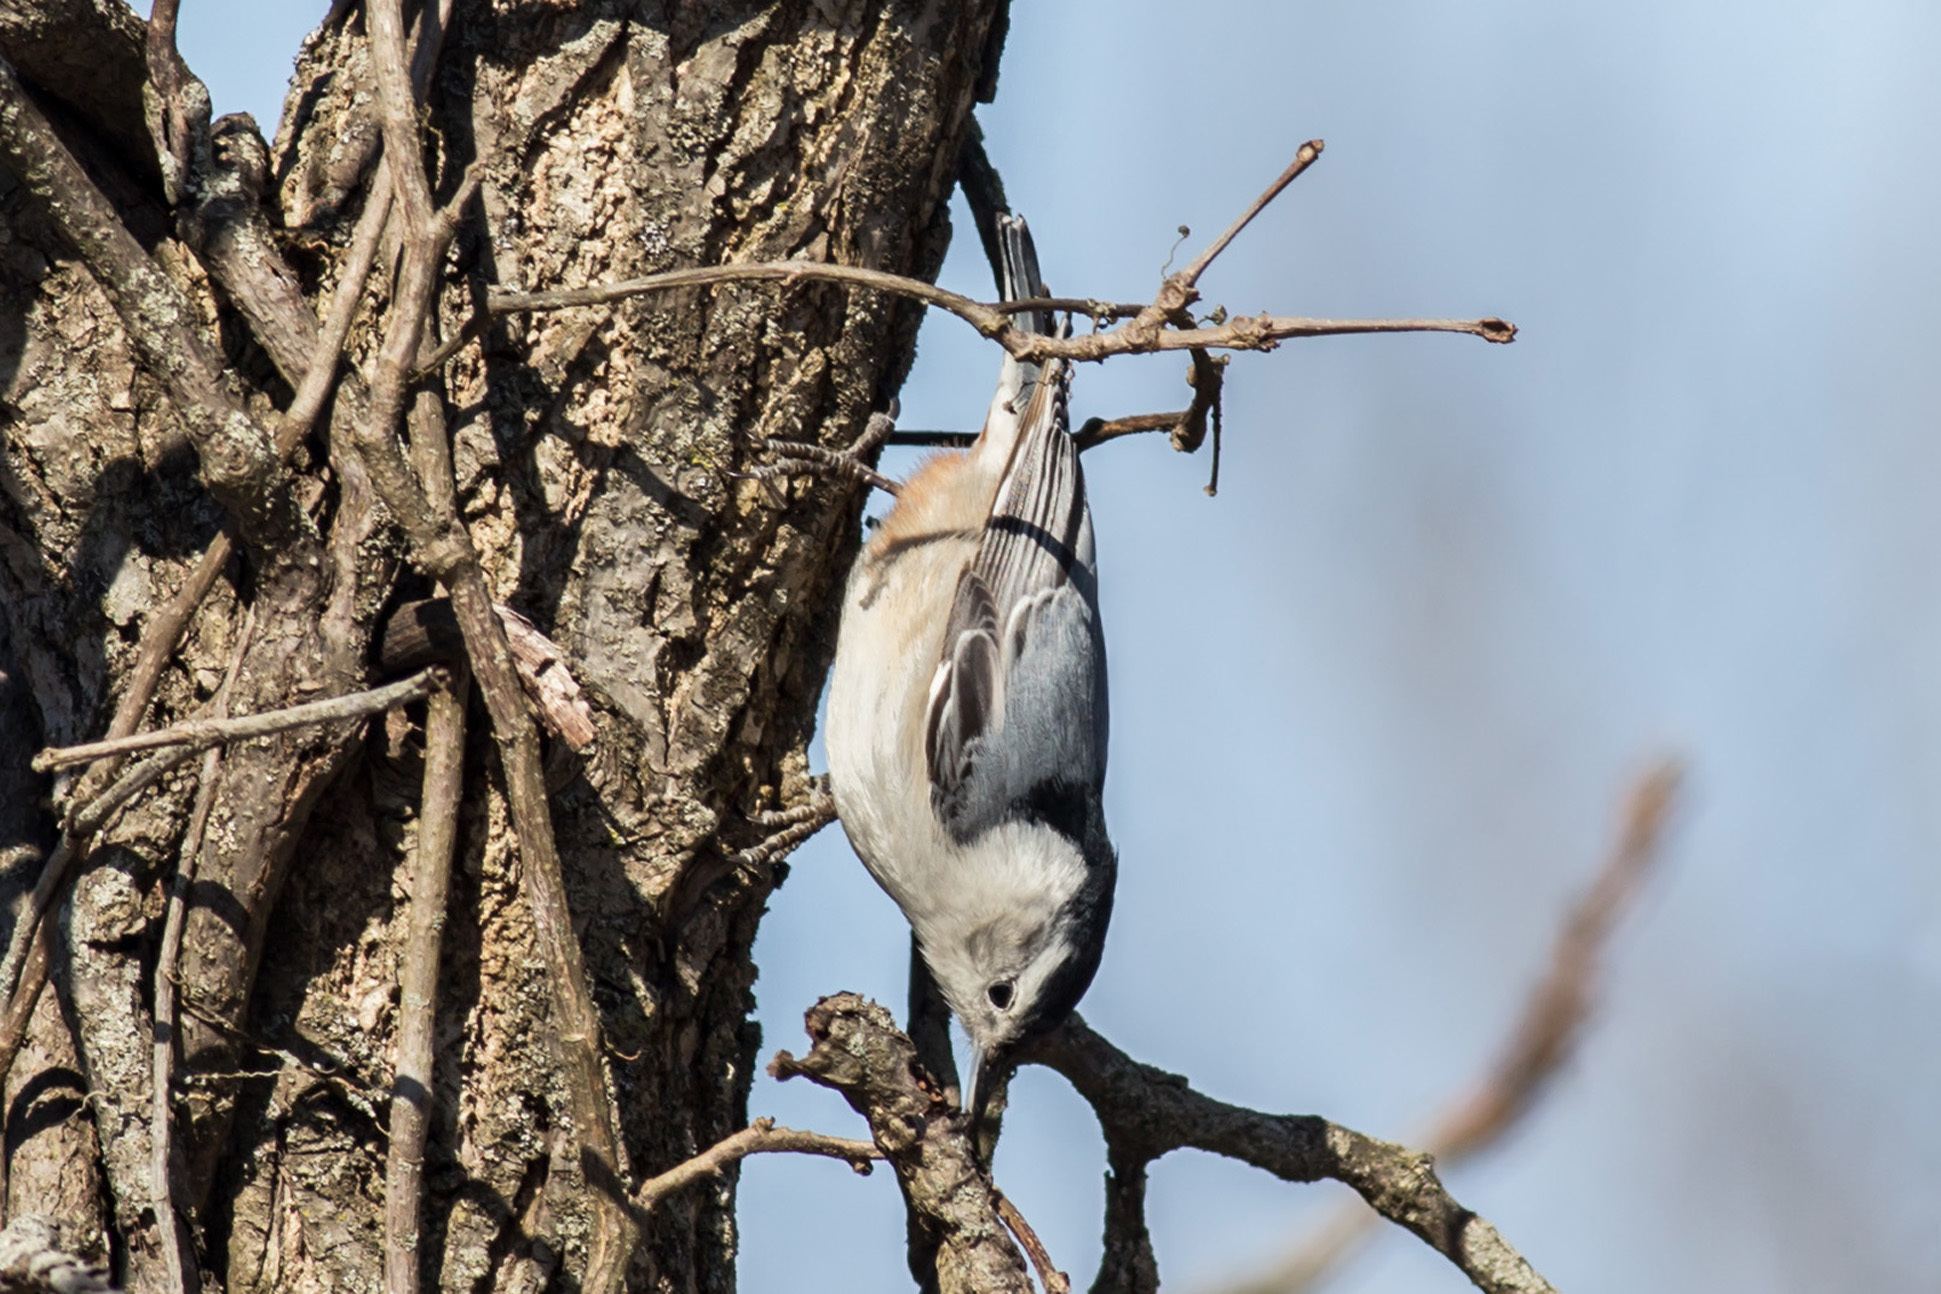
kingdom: Animalia
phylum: Chordata
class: Aves
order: Passeriformes
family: Sittidae
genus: Sitta
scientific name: Sitta carolinensis
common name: White-breasted nuthatch
